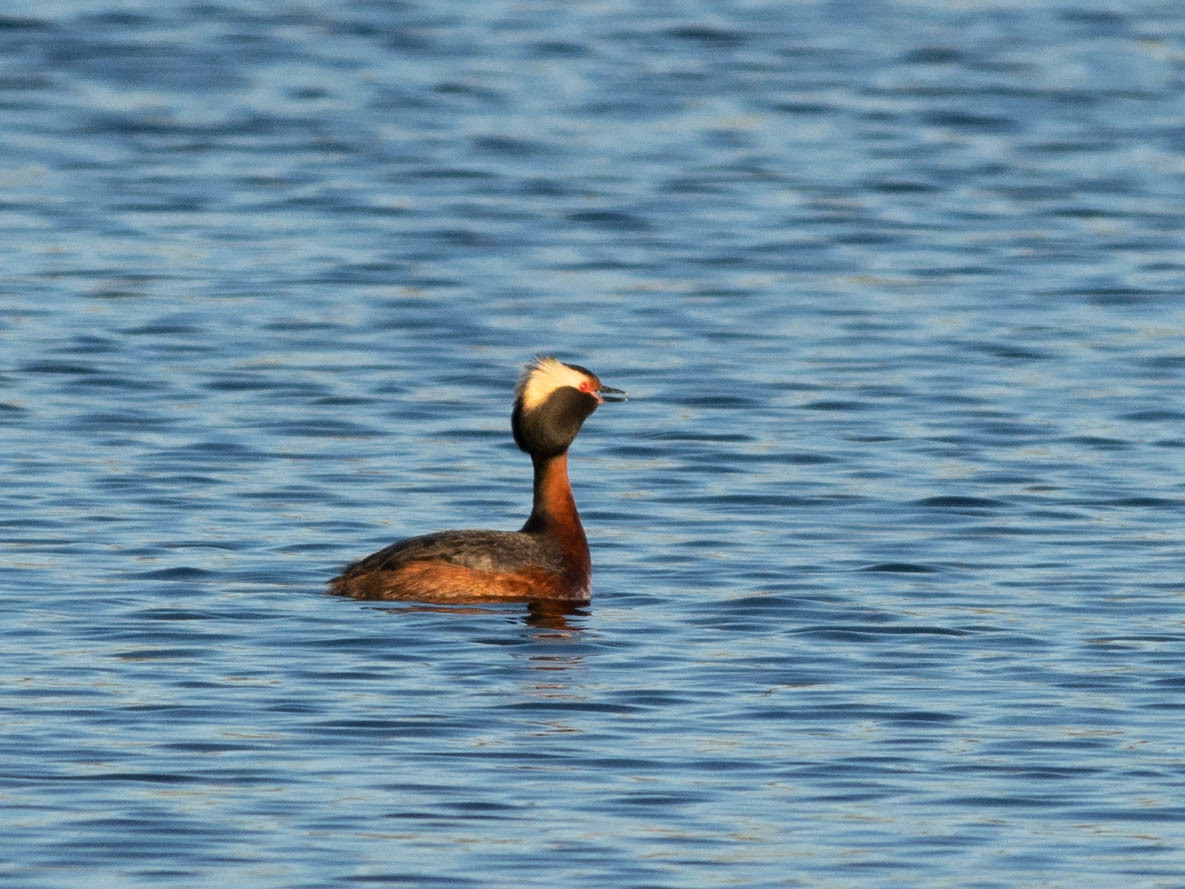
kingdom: Animalia
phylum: Chordata
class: Aves
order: Podicipediformes
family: Podicipedidae
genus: Podiceps
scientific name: Podiceps auritus
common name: Horned grebe
